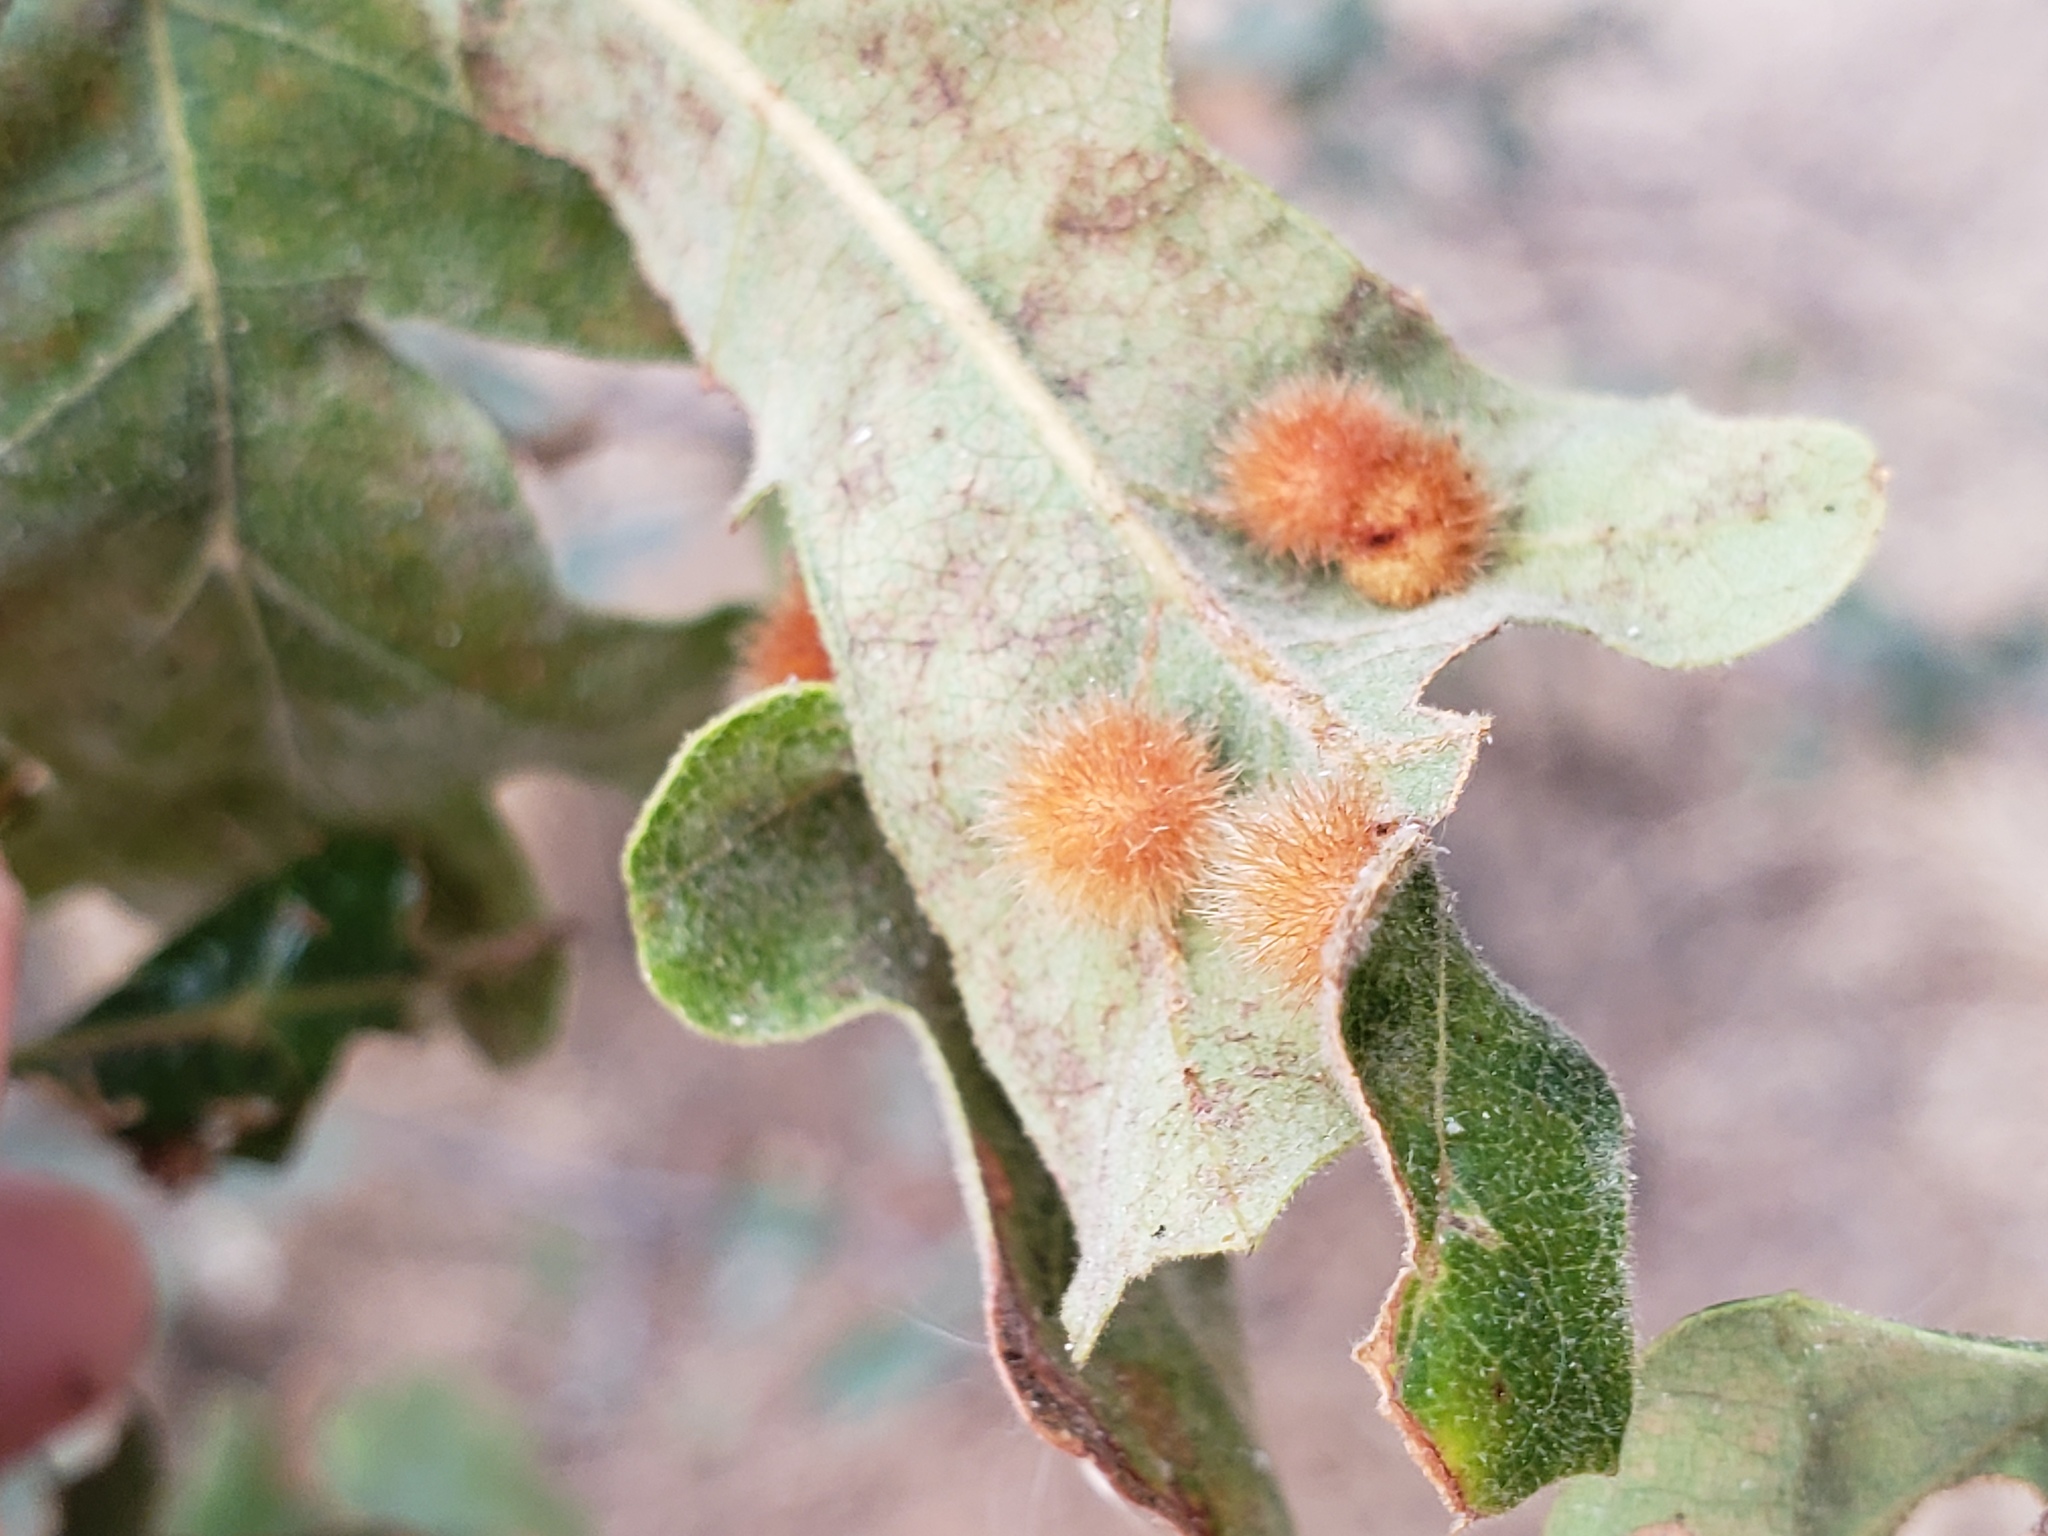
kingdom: Animalia
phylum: Arthropoda
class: Insecta
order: Hymenoptera
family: Cynipidae
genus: Atrusca
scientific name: Atrusca
